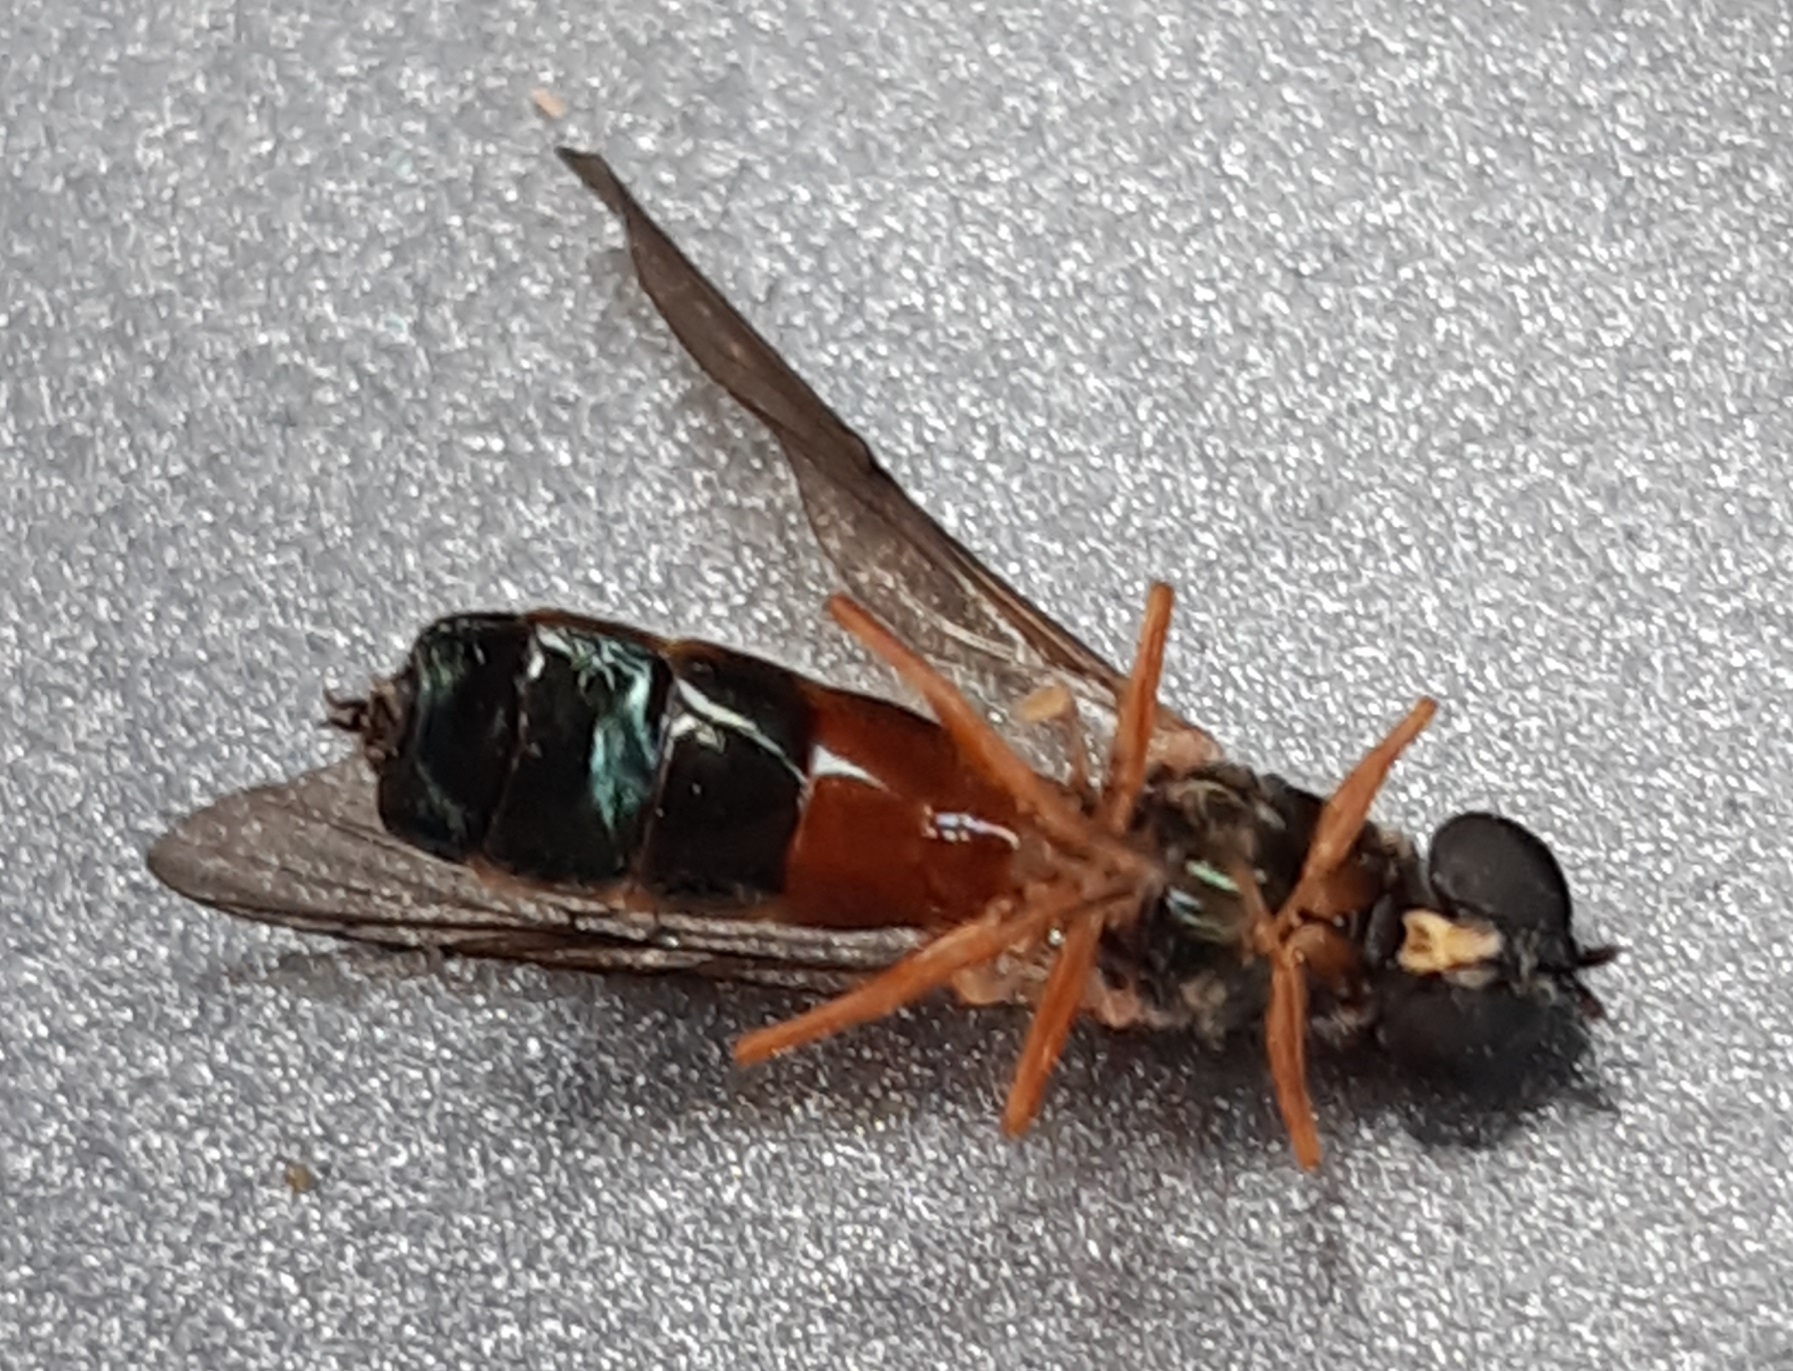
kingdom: Animalia
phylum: Arthropoda
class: Insecta
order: Diptera
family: Stratiomyidae
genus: Sargus
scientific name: Sargus bipunctatus
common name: Twin-spot centurion
